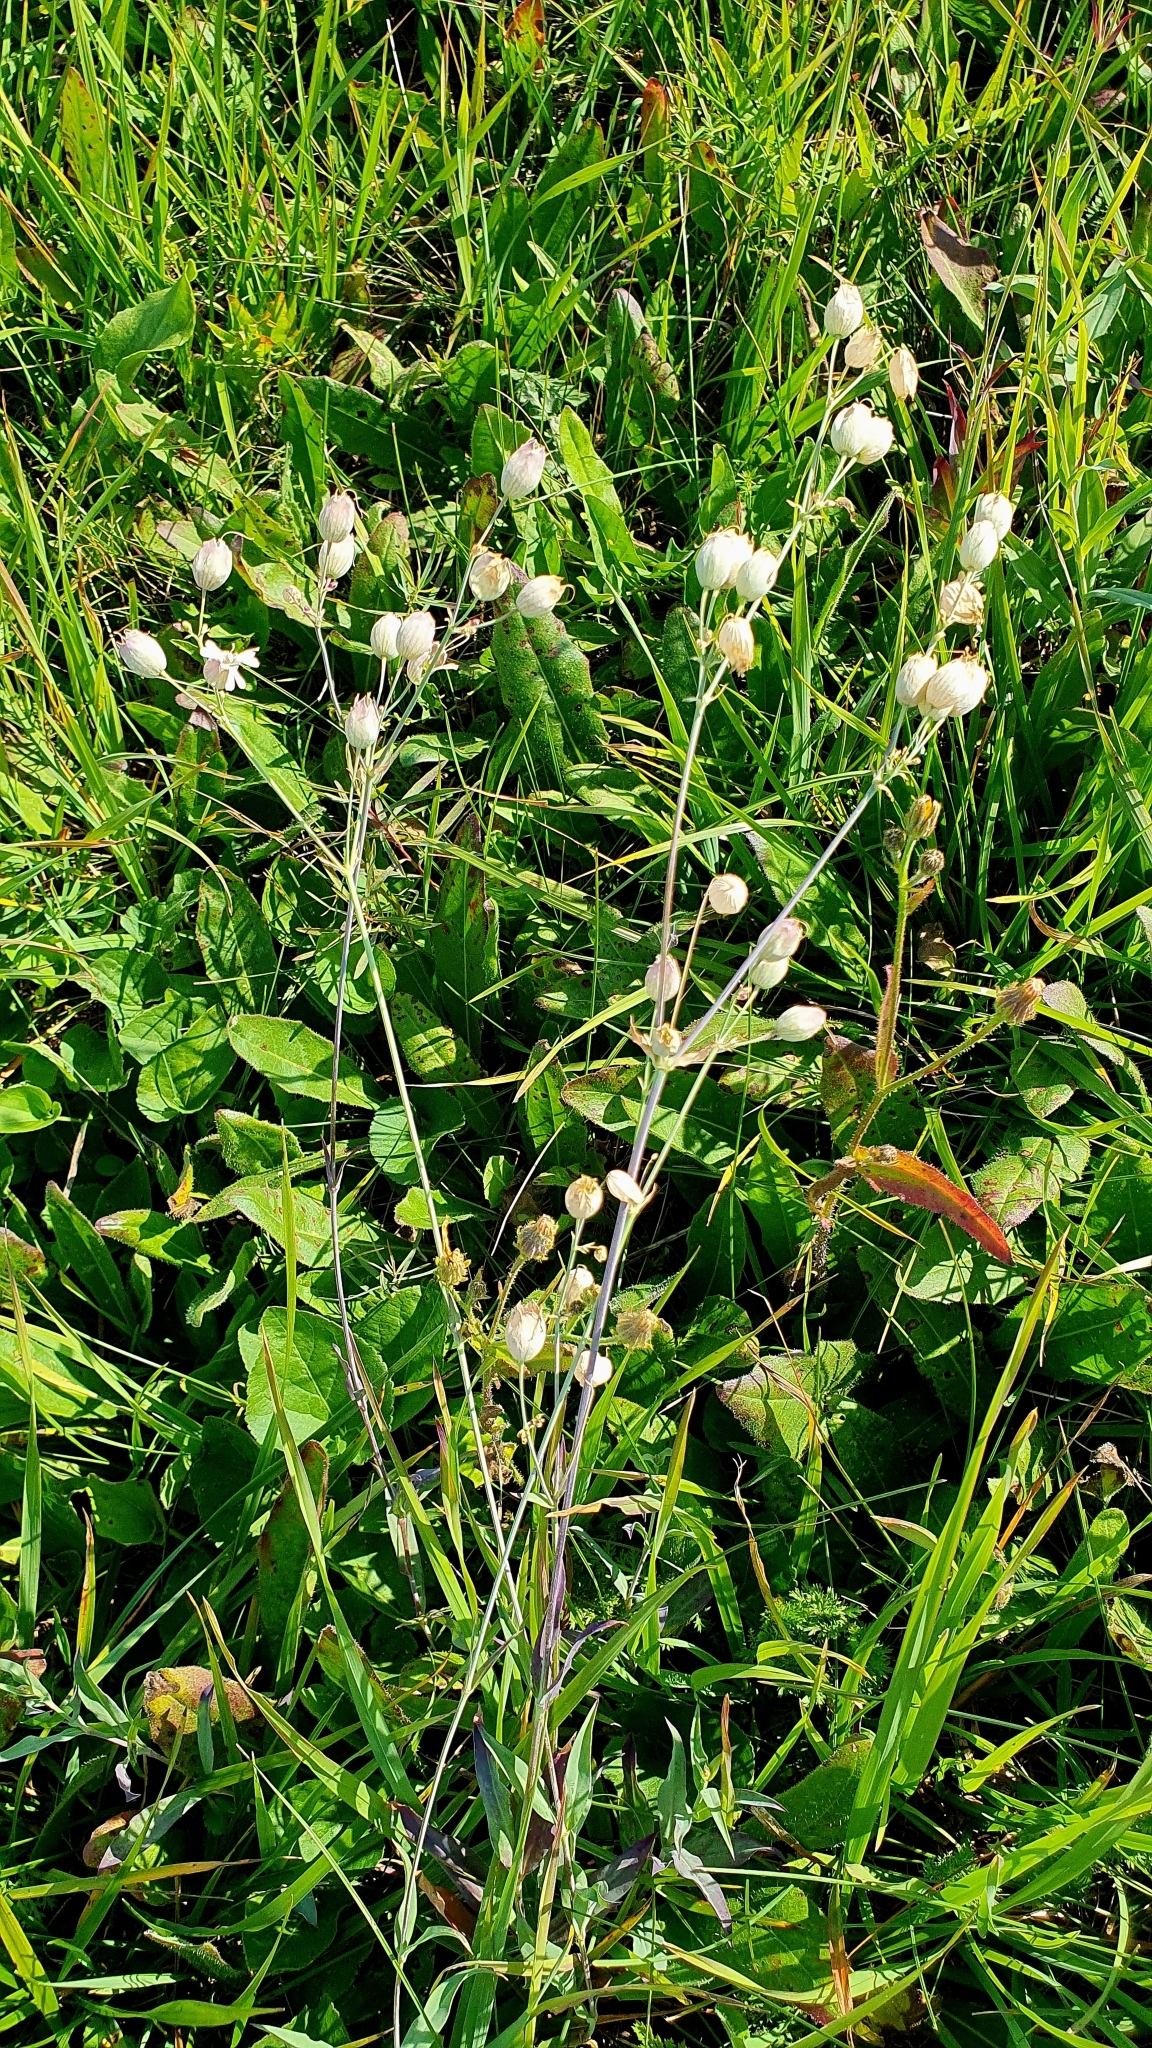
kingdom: Plantae
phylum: Tracheophyta
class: Magnoliopsida
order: Caryophyllales
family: Caryophyllaceae
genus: Silene
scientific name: Silene vulgaris
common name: Bladder campion
